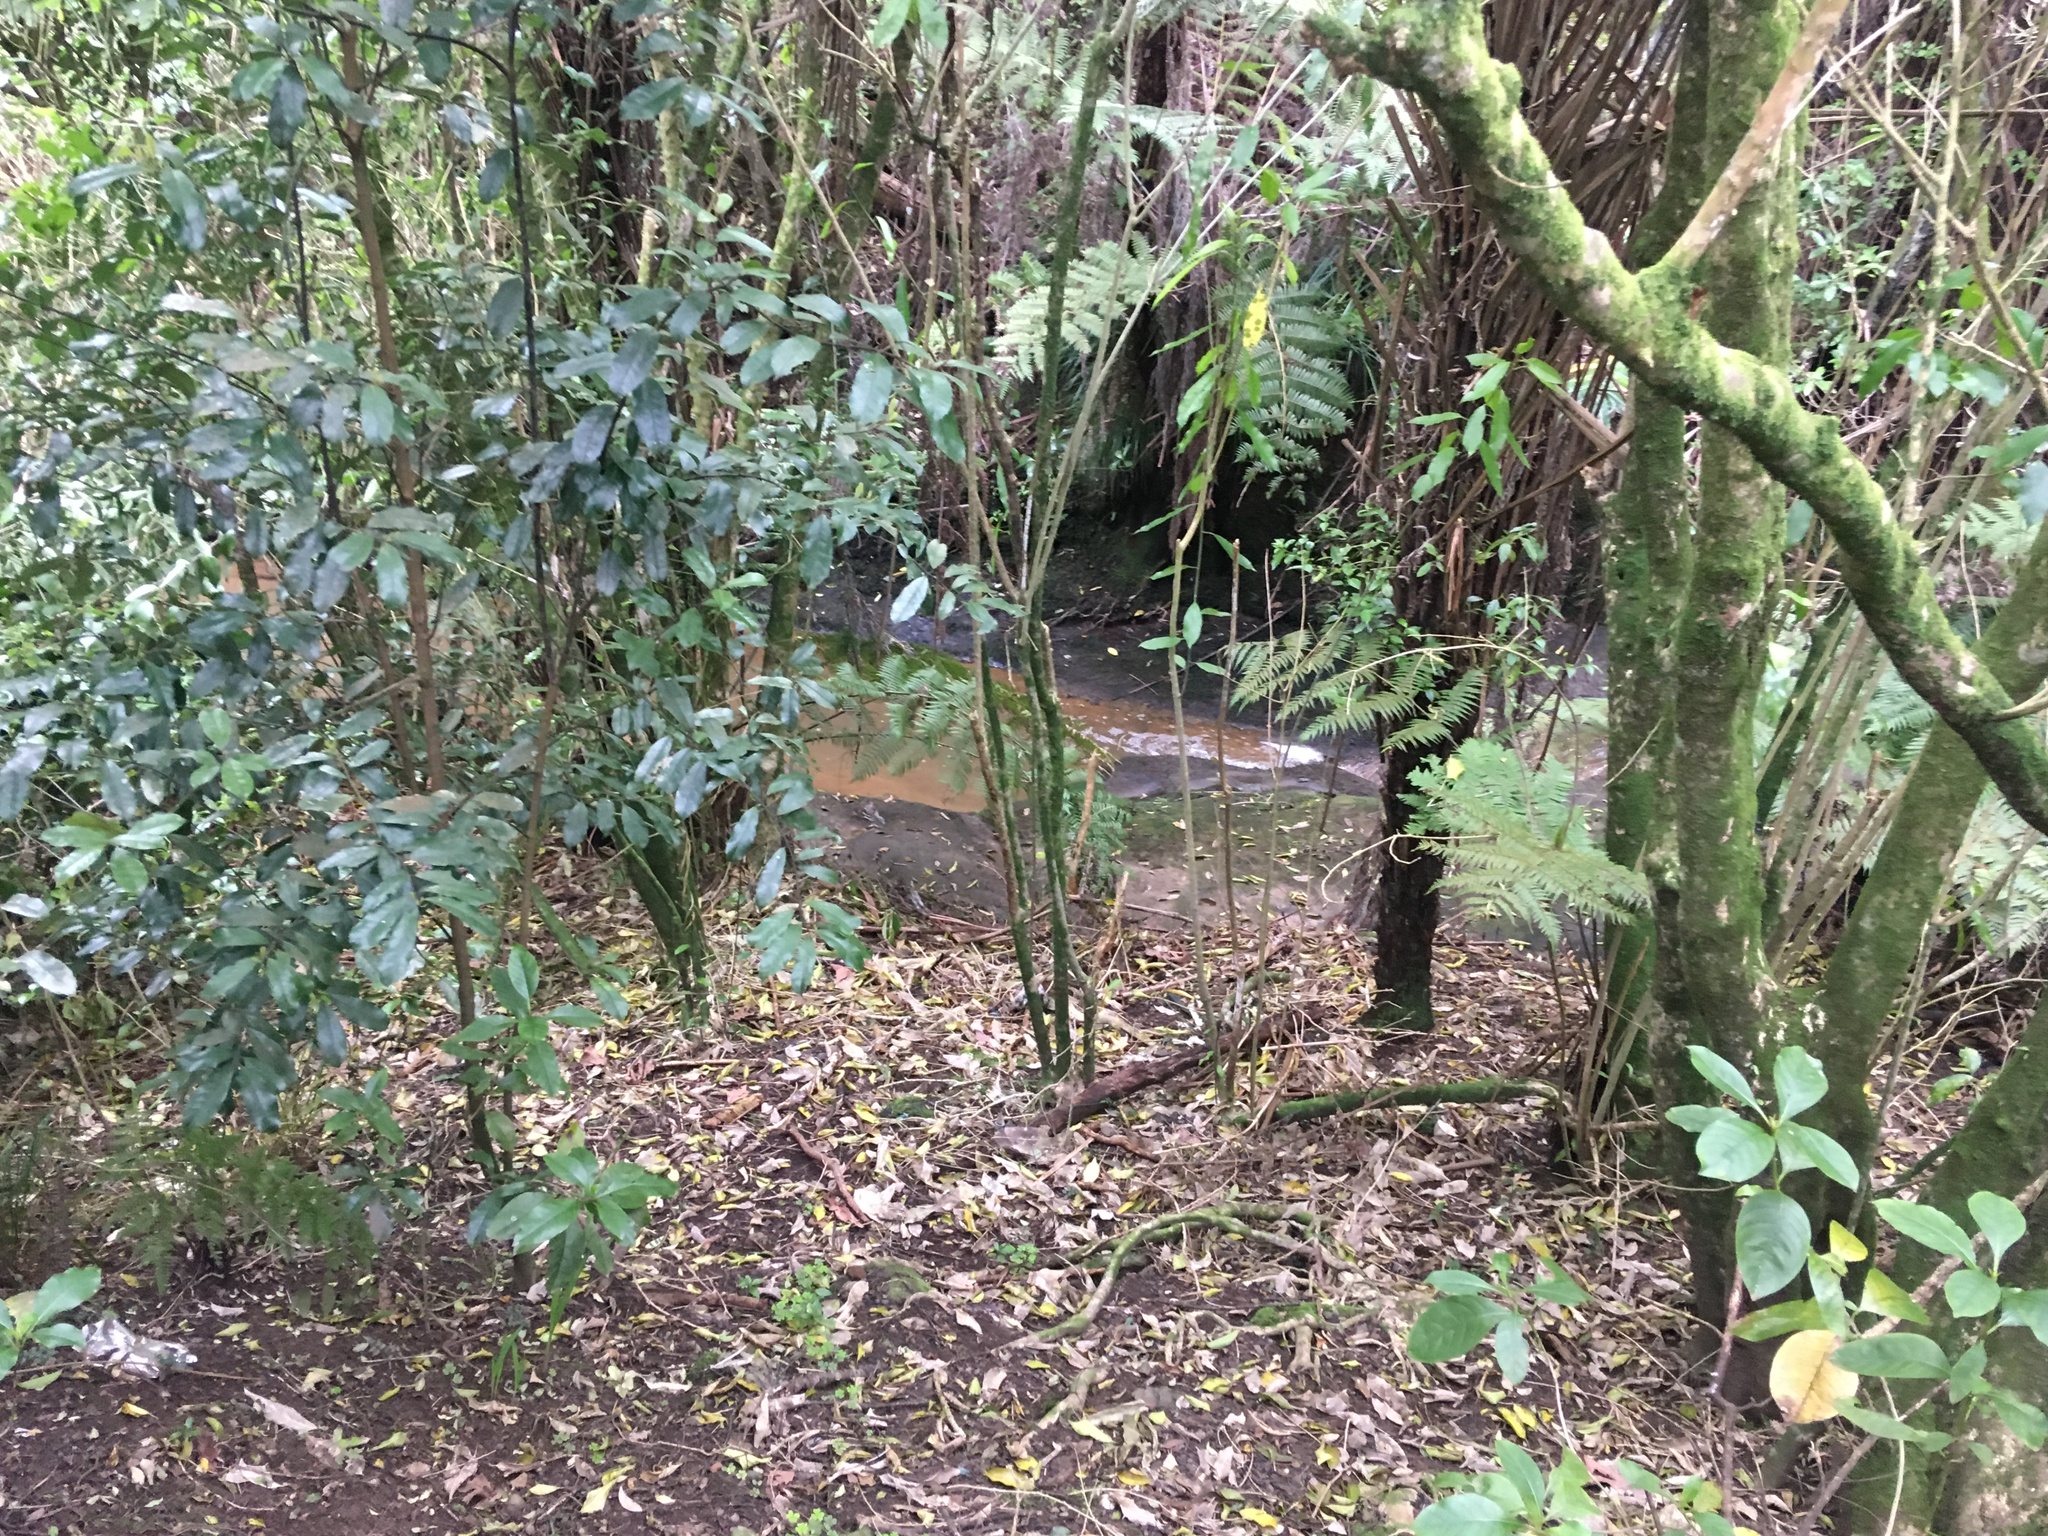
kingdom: Plantae
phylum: Tracheophyta
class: Magnoliopsida
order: Laurales
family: Monimiaceae
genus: Hedycarya
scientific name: Hedycarya arborea
